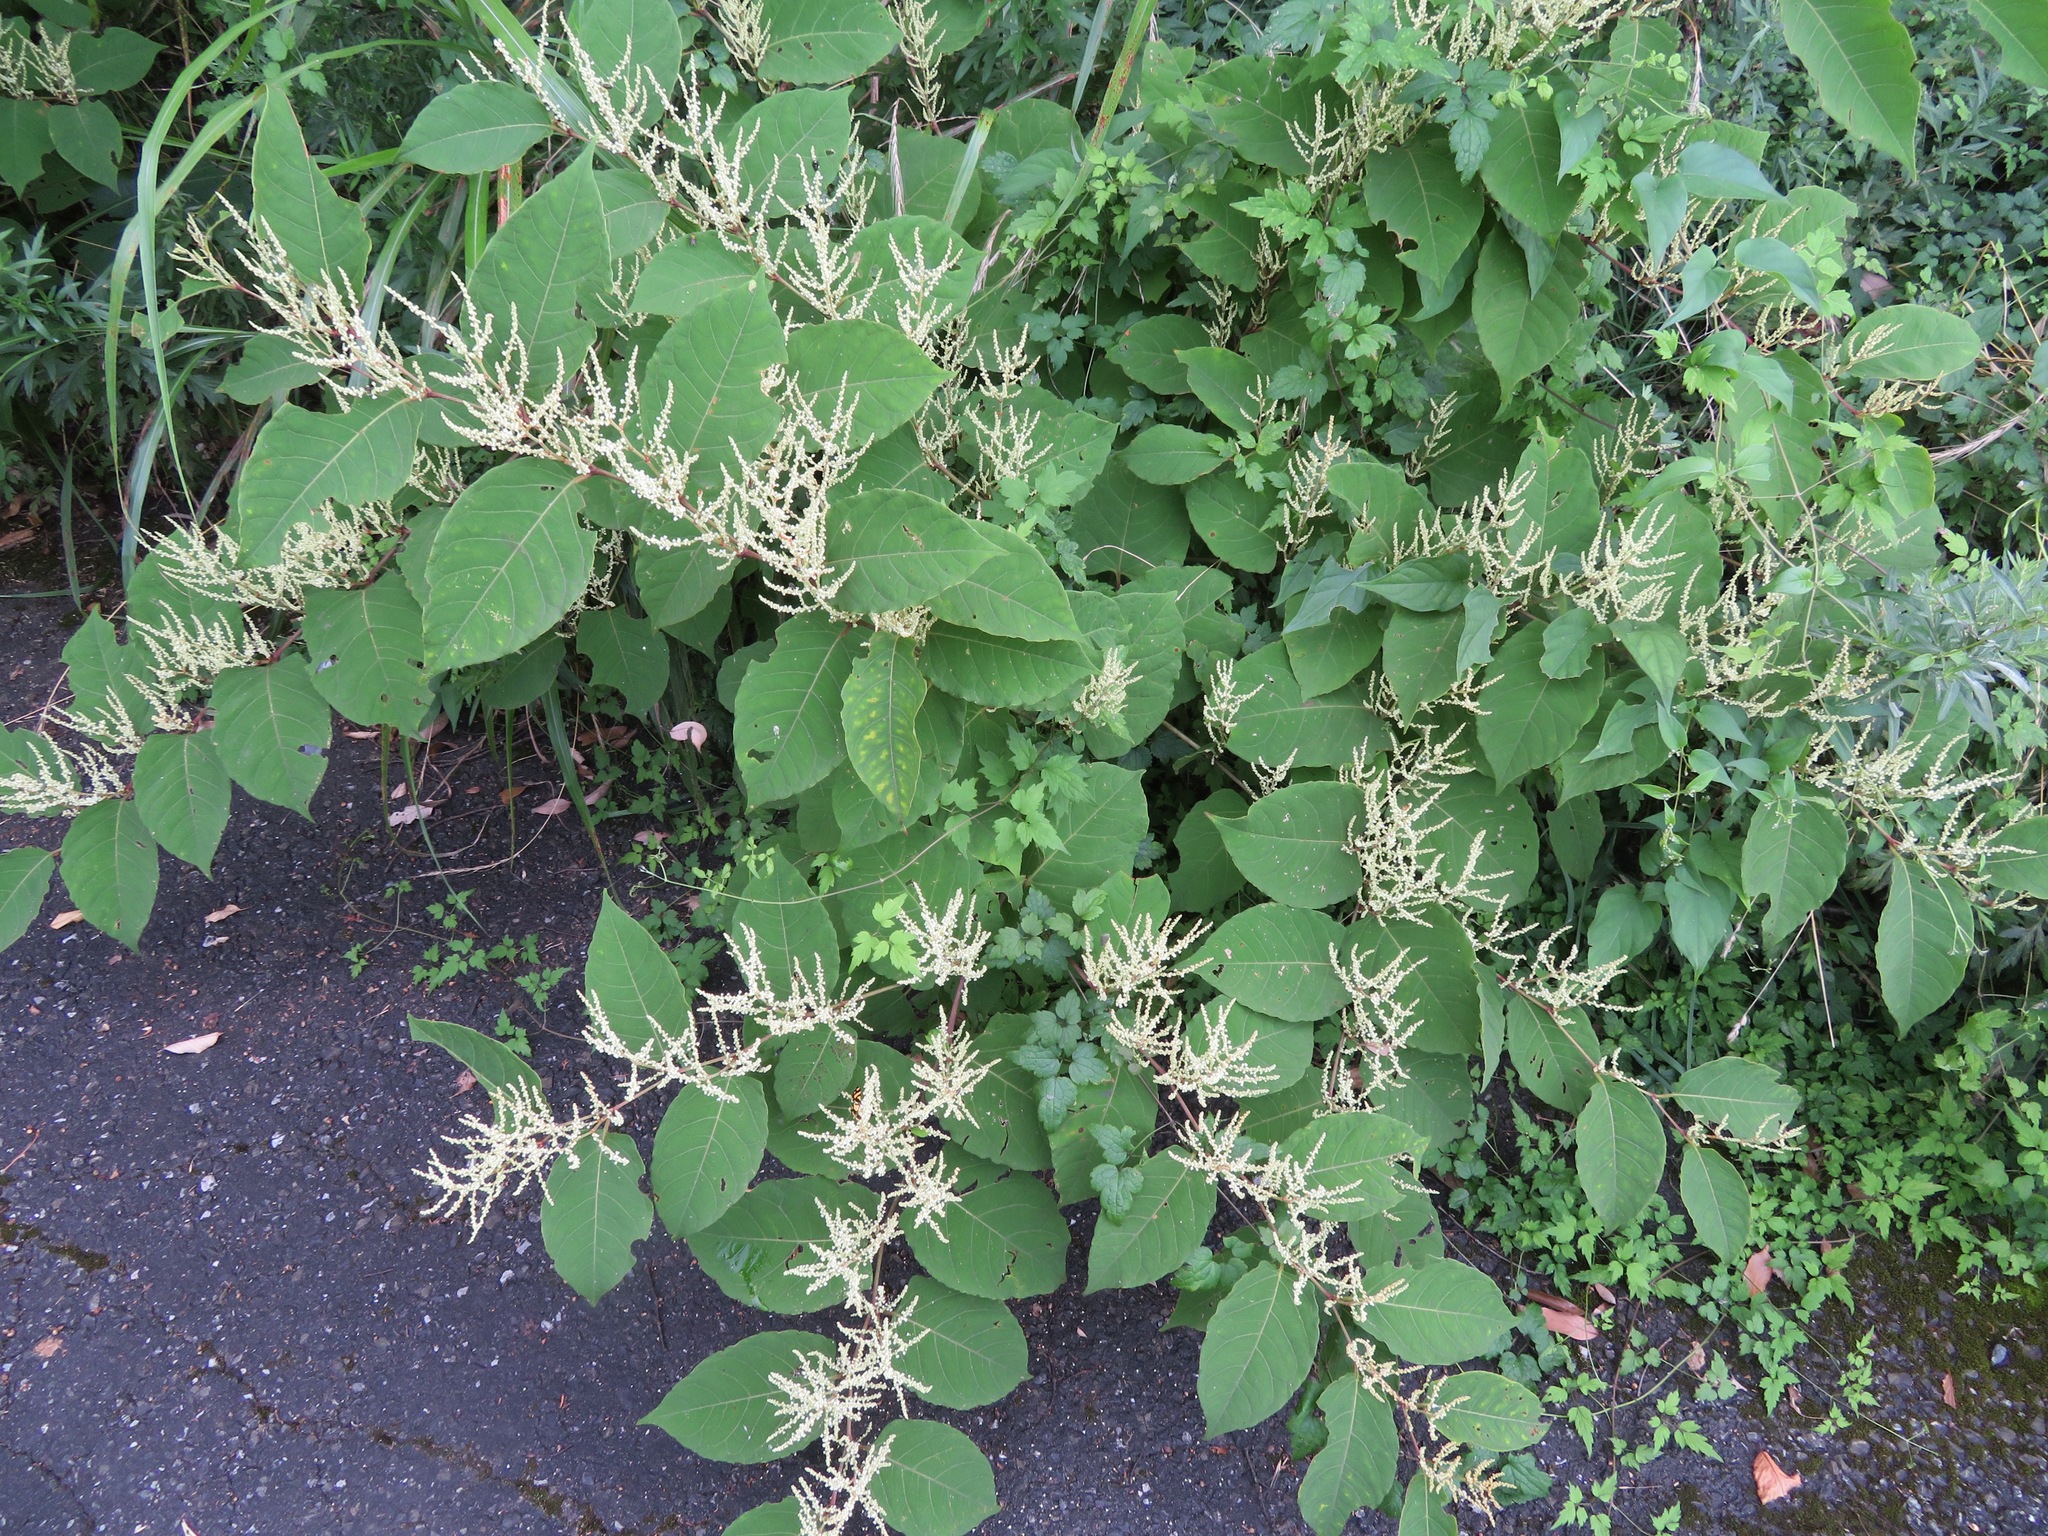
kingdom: Plantae
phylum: Tracheophyta
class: Magnoliopsida
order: Caryophyllales
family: Polygonaceae
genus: Reynoutria
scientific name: Reynoutria japonica
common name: Japanese knotweed
